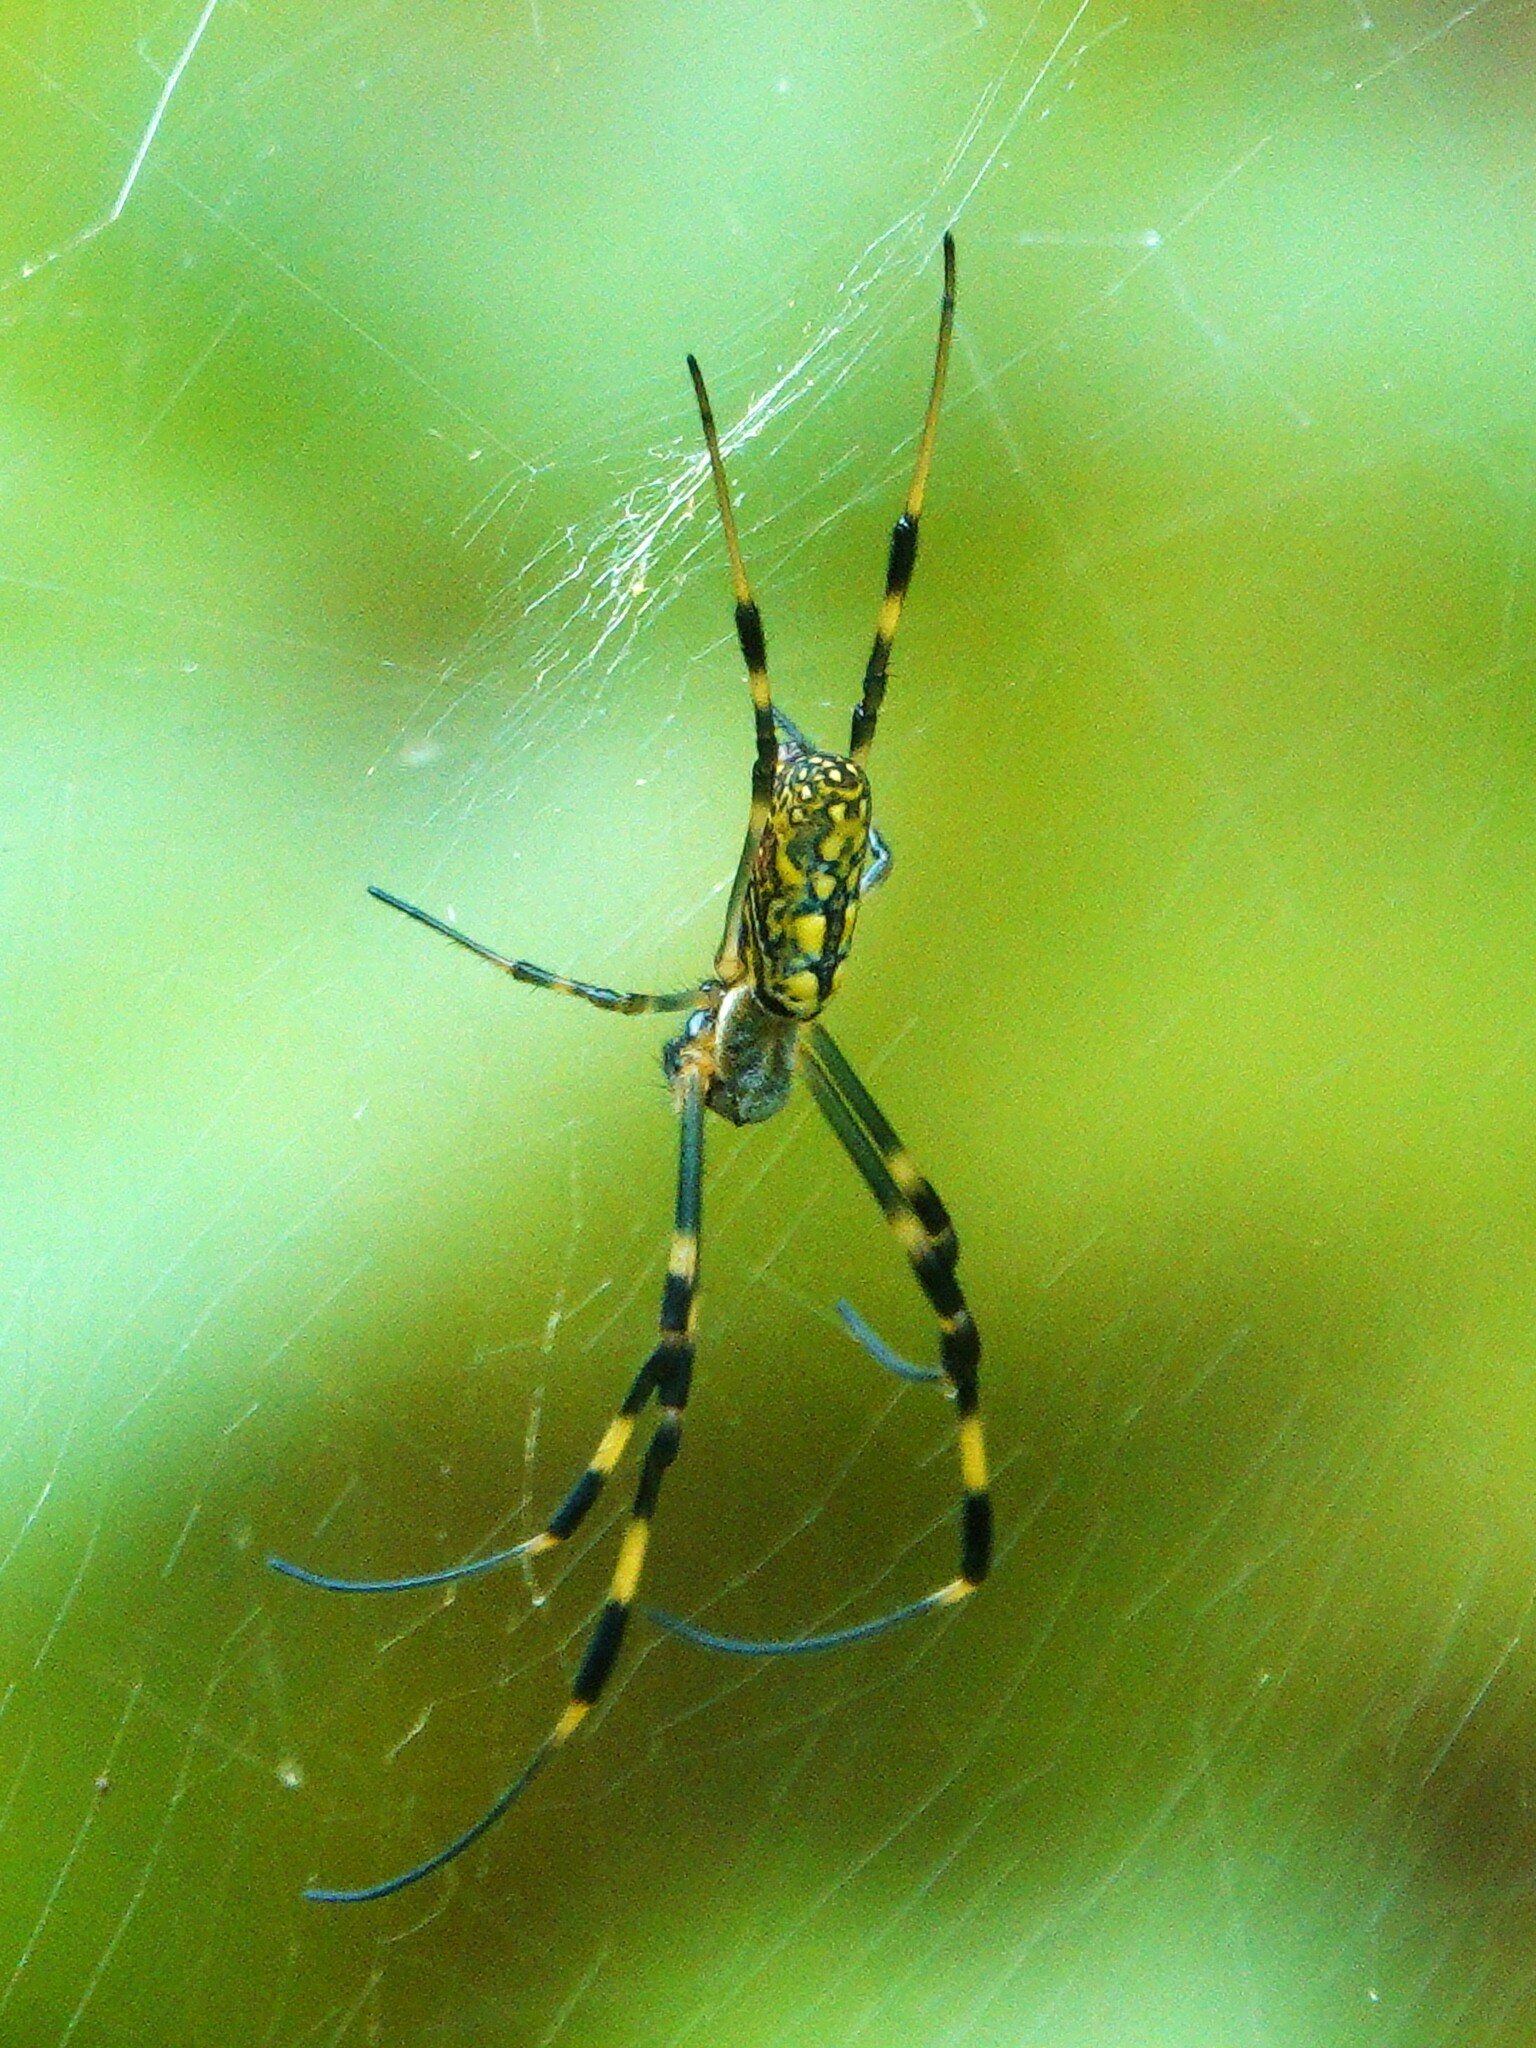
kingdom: Animalia
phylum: Arthropoda
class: Arachnida
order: Araneae
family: Araneidae
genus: Trichonephila
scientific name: Trichonephila clavata
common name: Jorō spider
